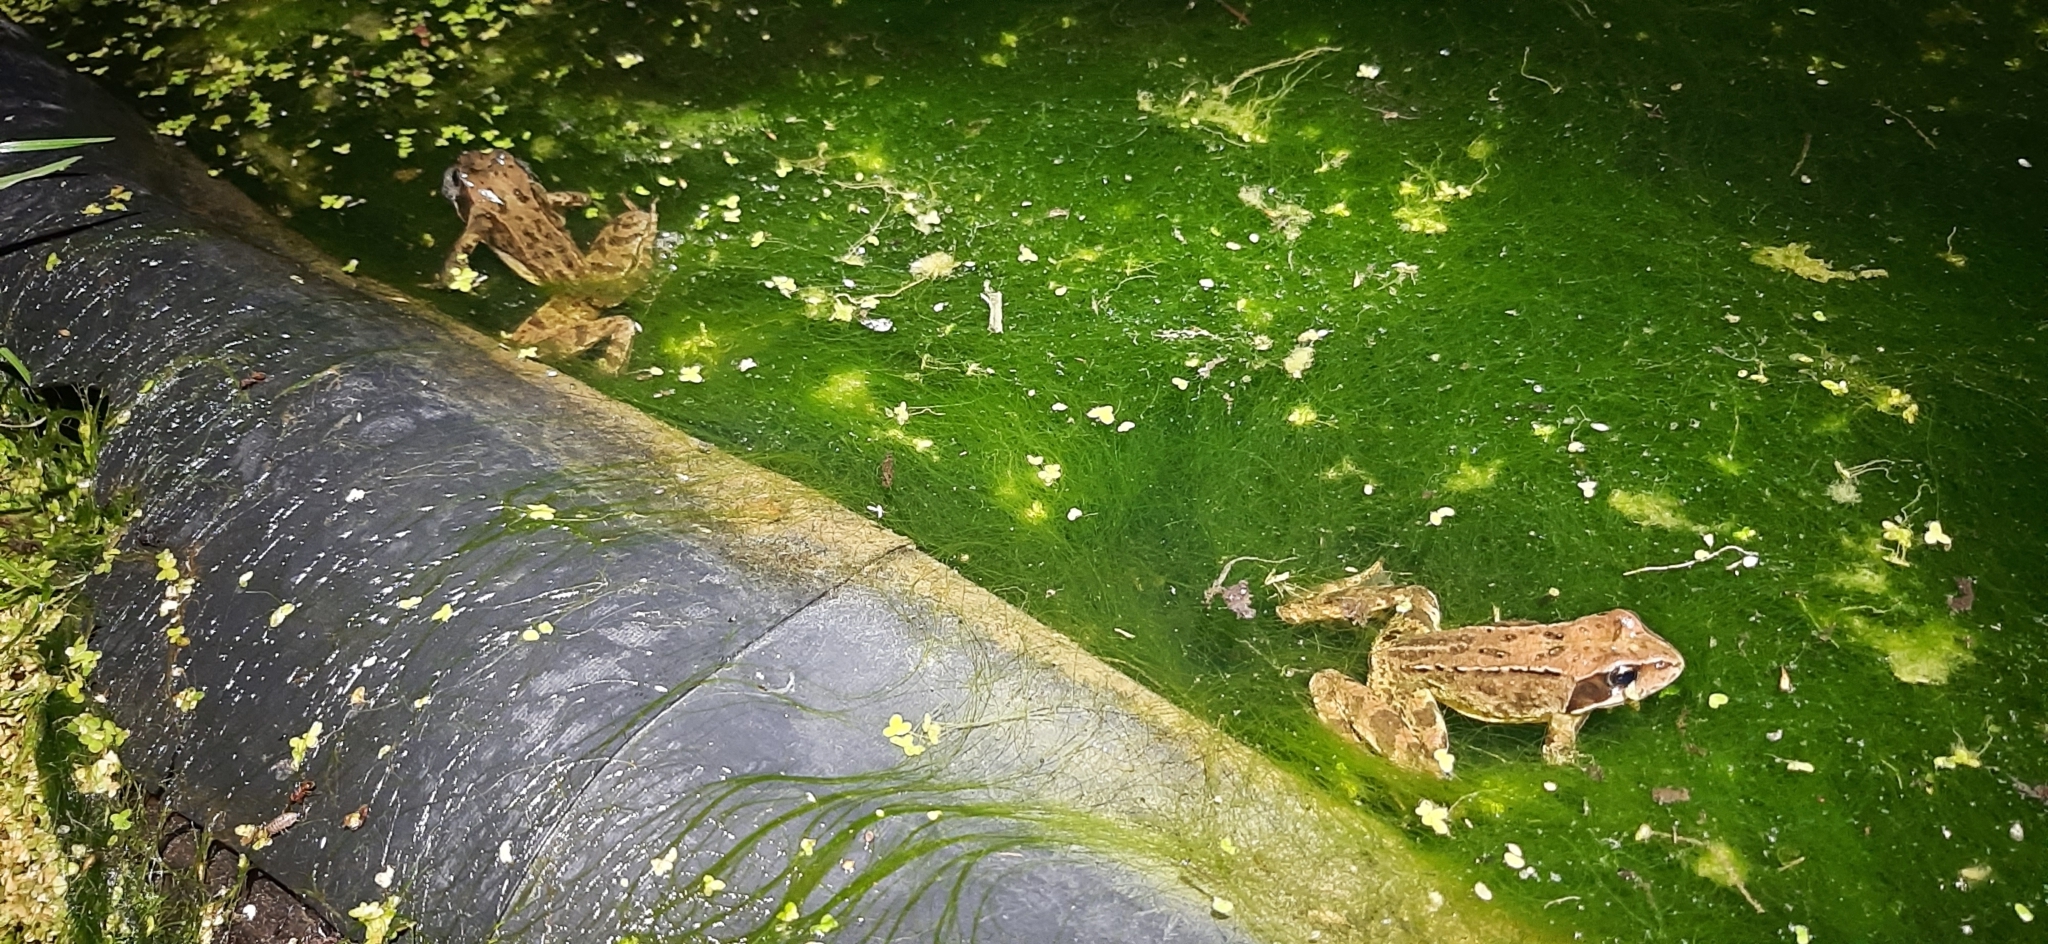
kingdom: Animalia
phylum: Chordata
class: Amphibia
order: Anura
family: Ranidae
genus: Rana
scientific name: Rana temporaria
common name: Common frog
